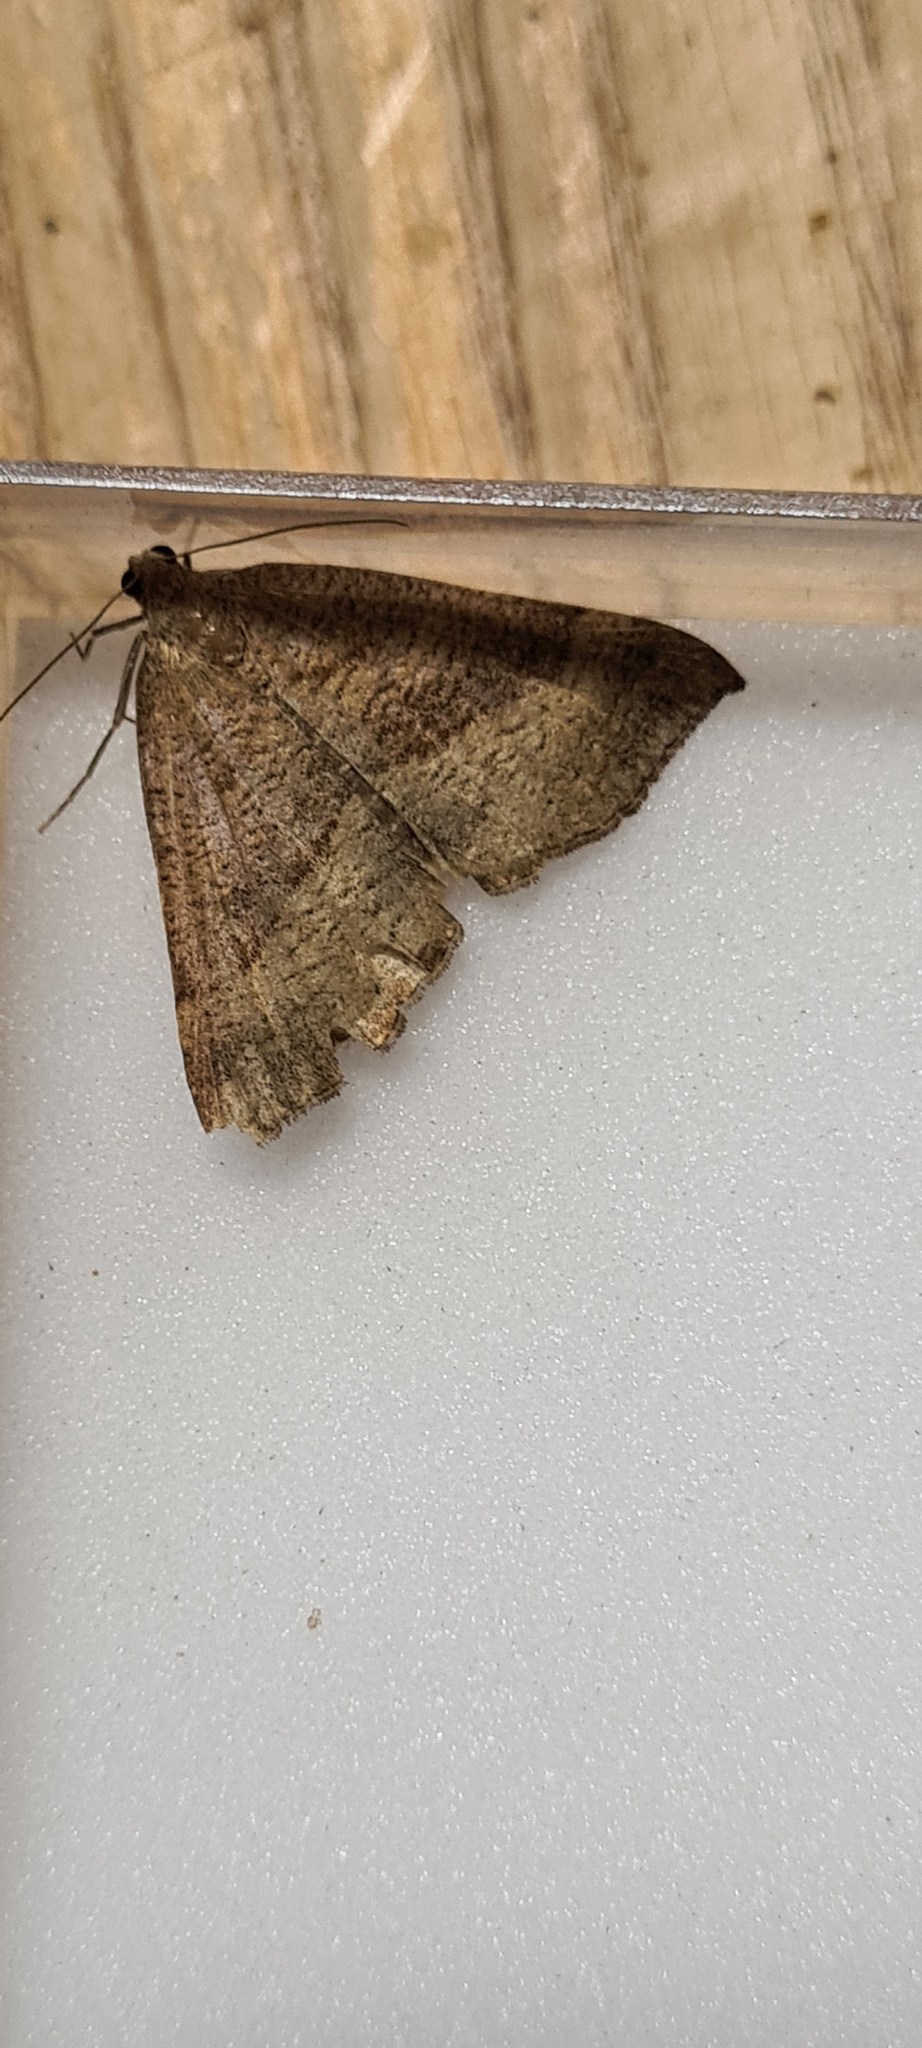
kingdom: Animalia
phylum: Arthropoda
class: Insecta
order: Lepidoptera
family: Erebidae
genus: Hypena
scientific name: Hypena proboscidalis
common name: Snout
